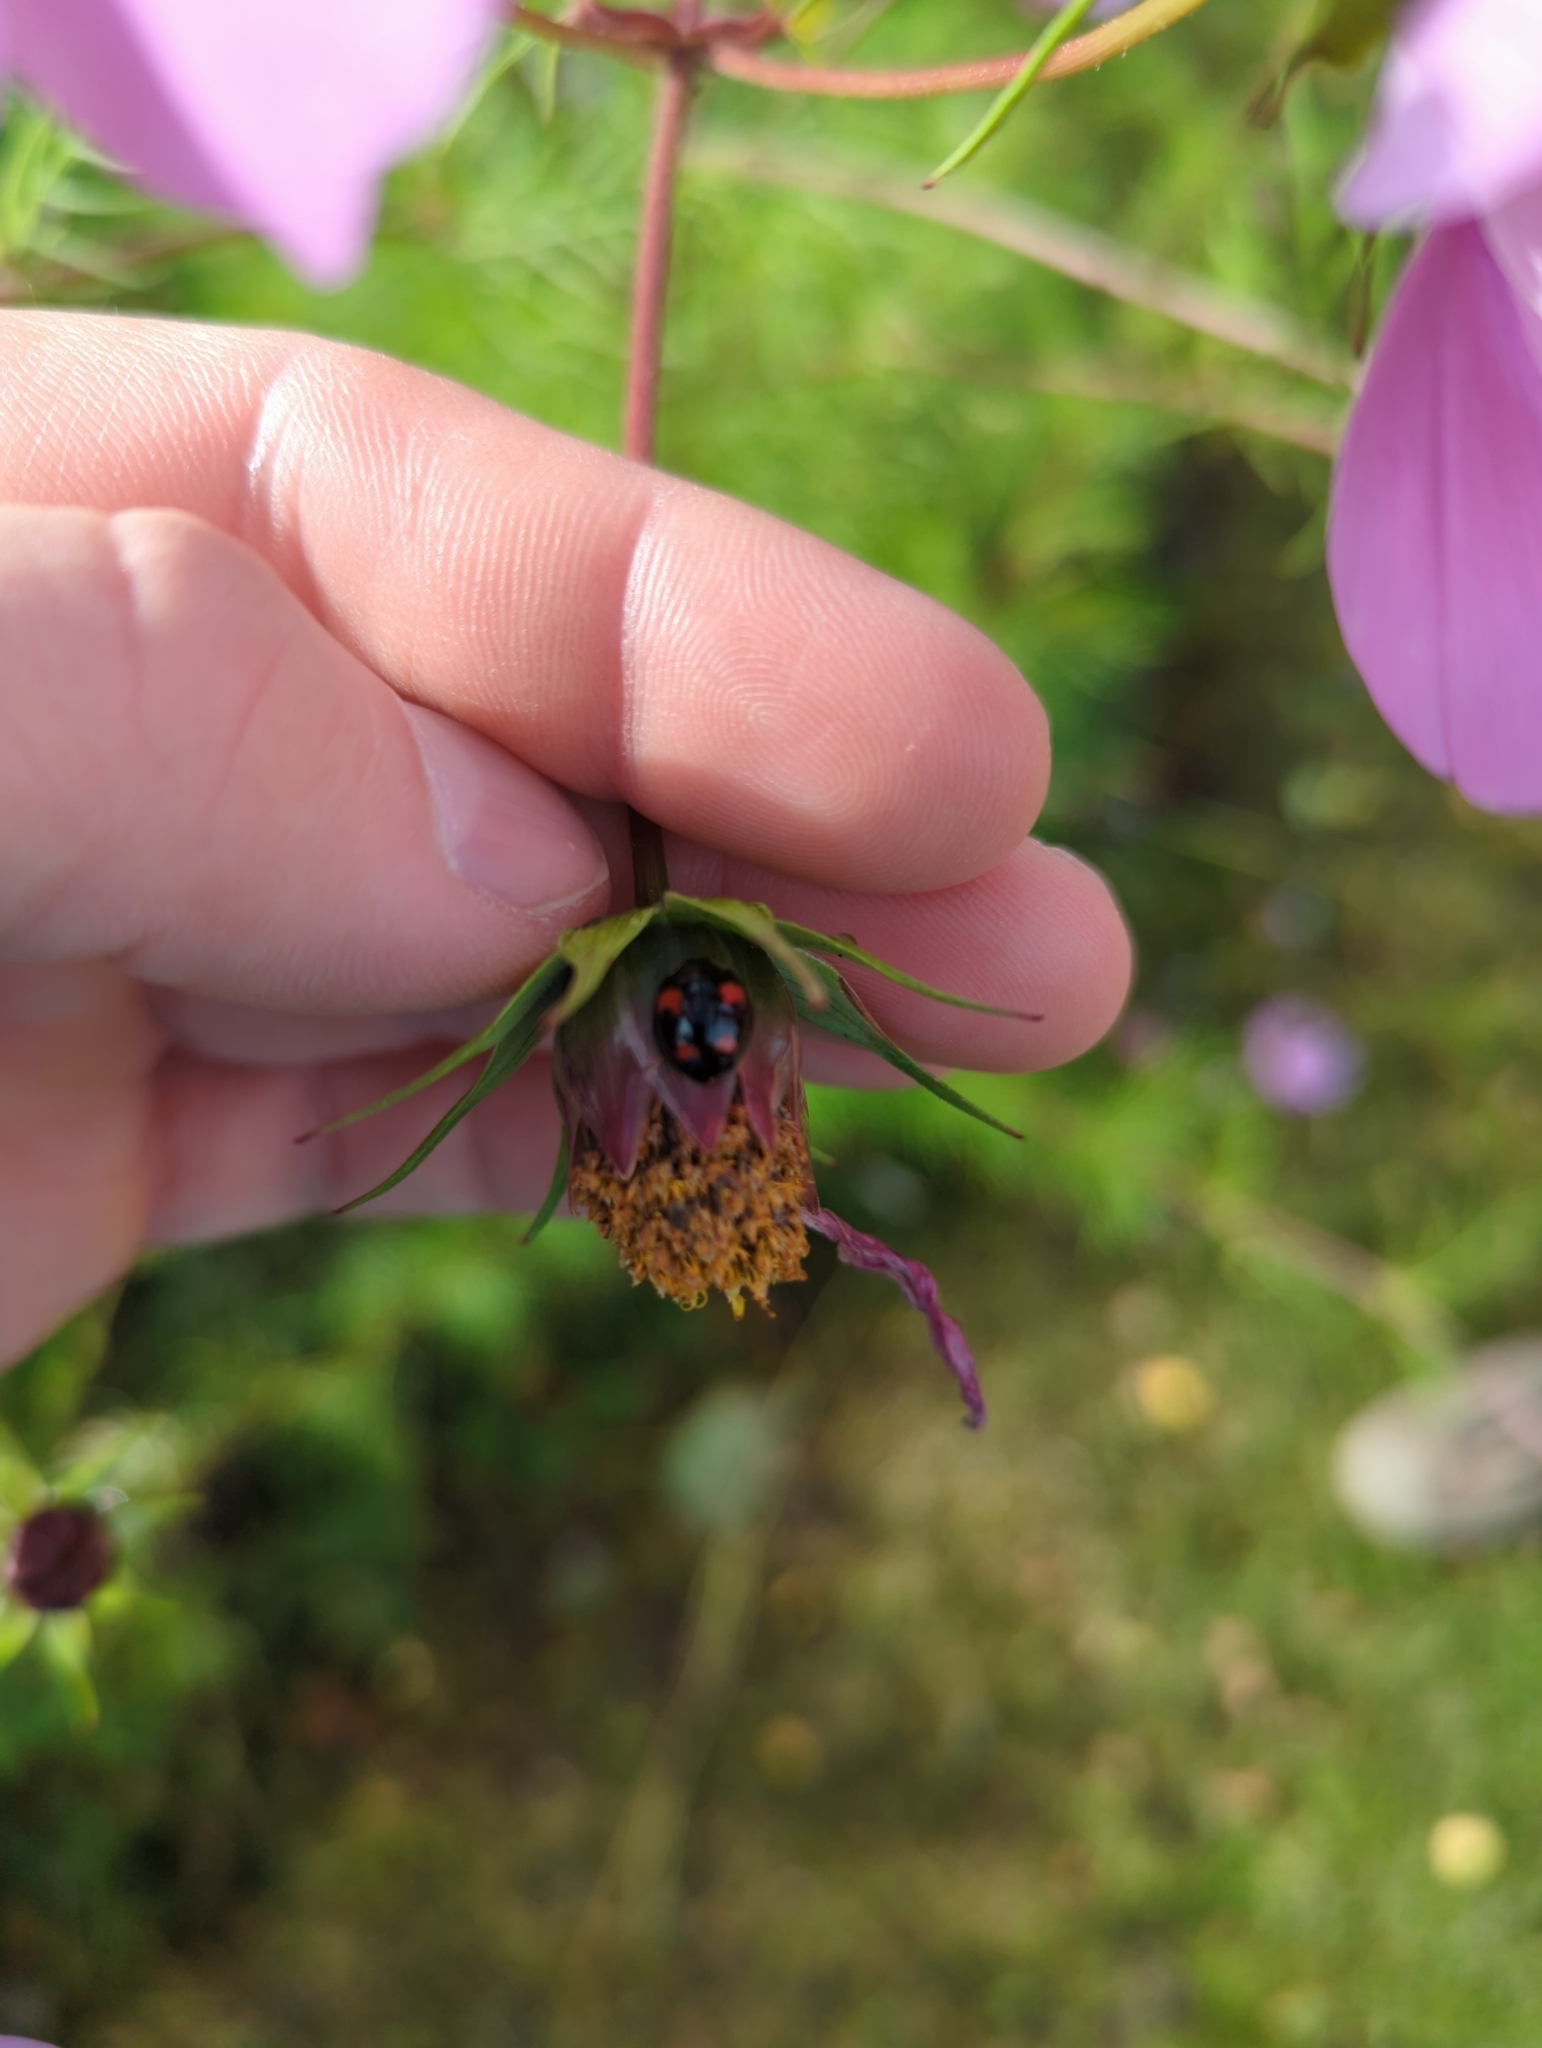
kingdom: Animalia
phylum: Arthropoda
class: Insecta
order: Coleoptera
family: Coccinellidae
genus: Harmonia
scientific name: Harmonia axyridis
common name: Harlequin ladybird
